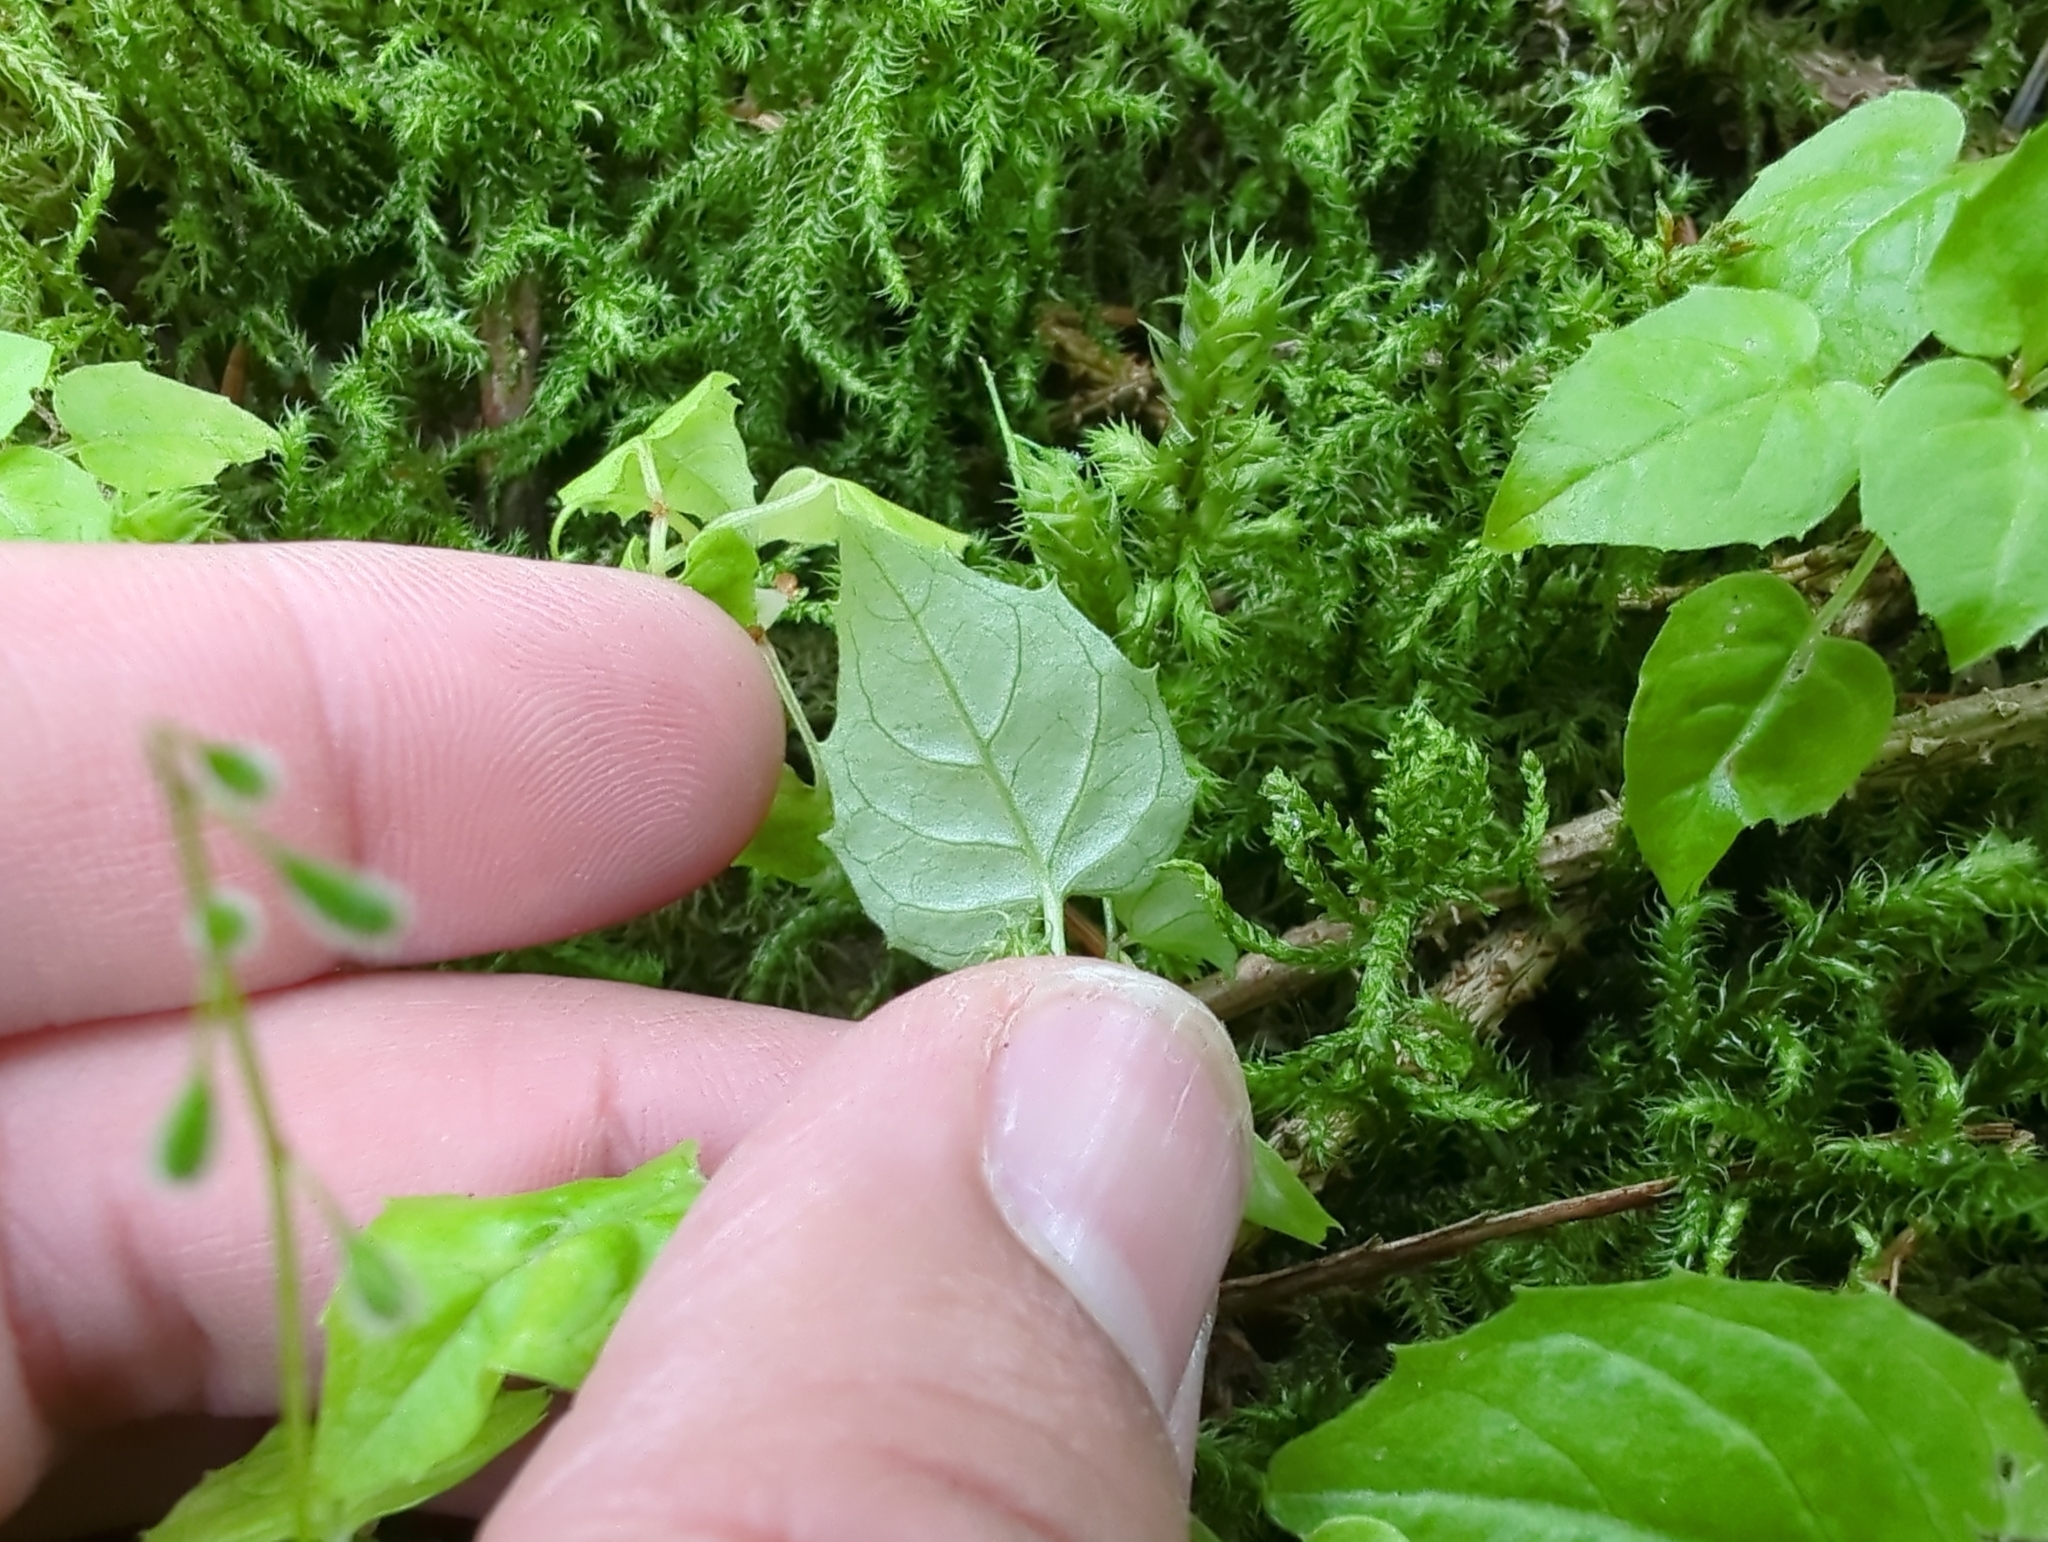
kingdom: Plantae
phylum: Tracheophyta
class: Magnoliopsida
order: Myrtales
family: Onagraceae
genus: Circaea
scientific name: Circaea alpina
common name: Alpine enchanter's-nightshade
